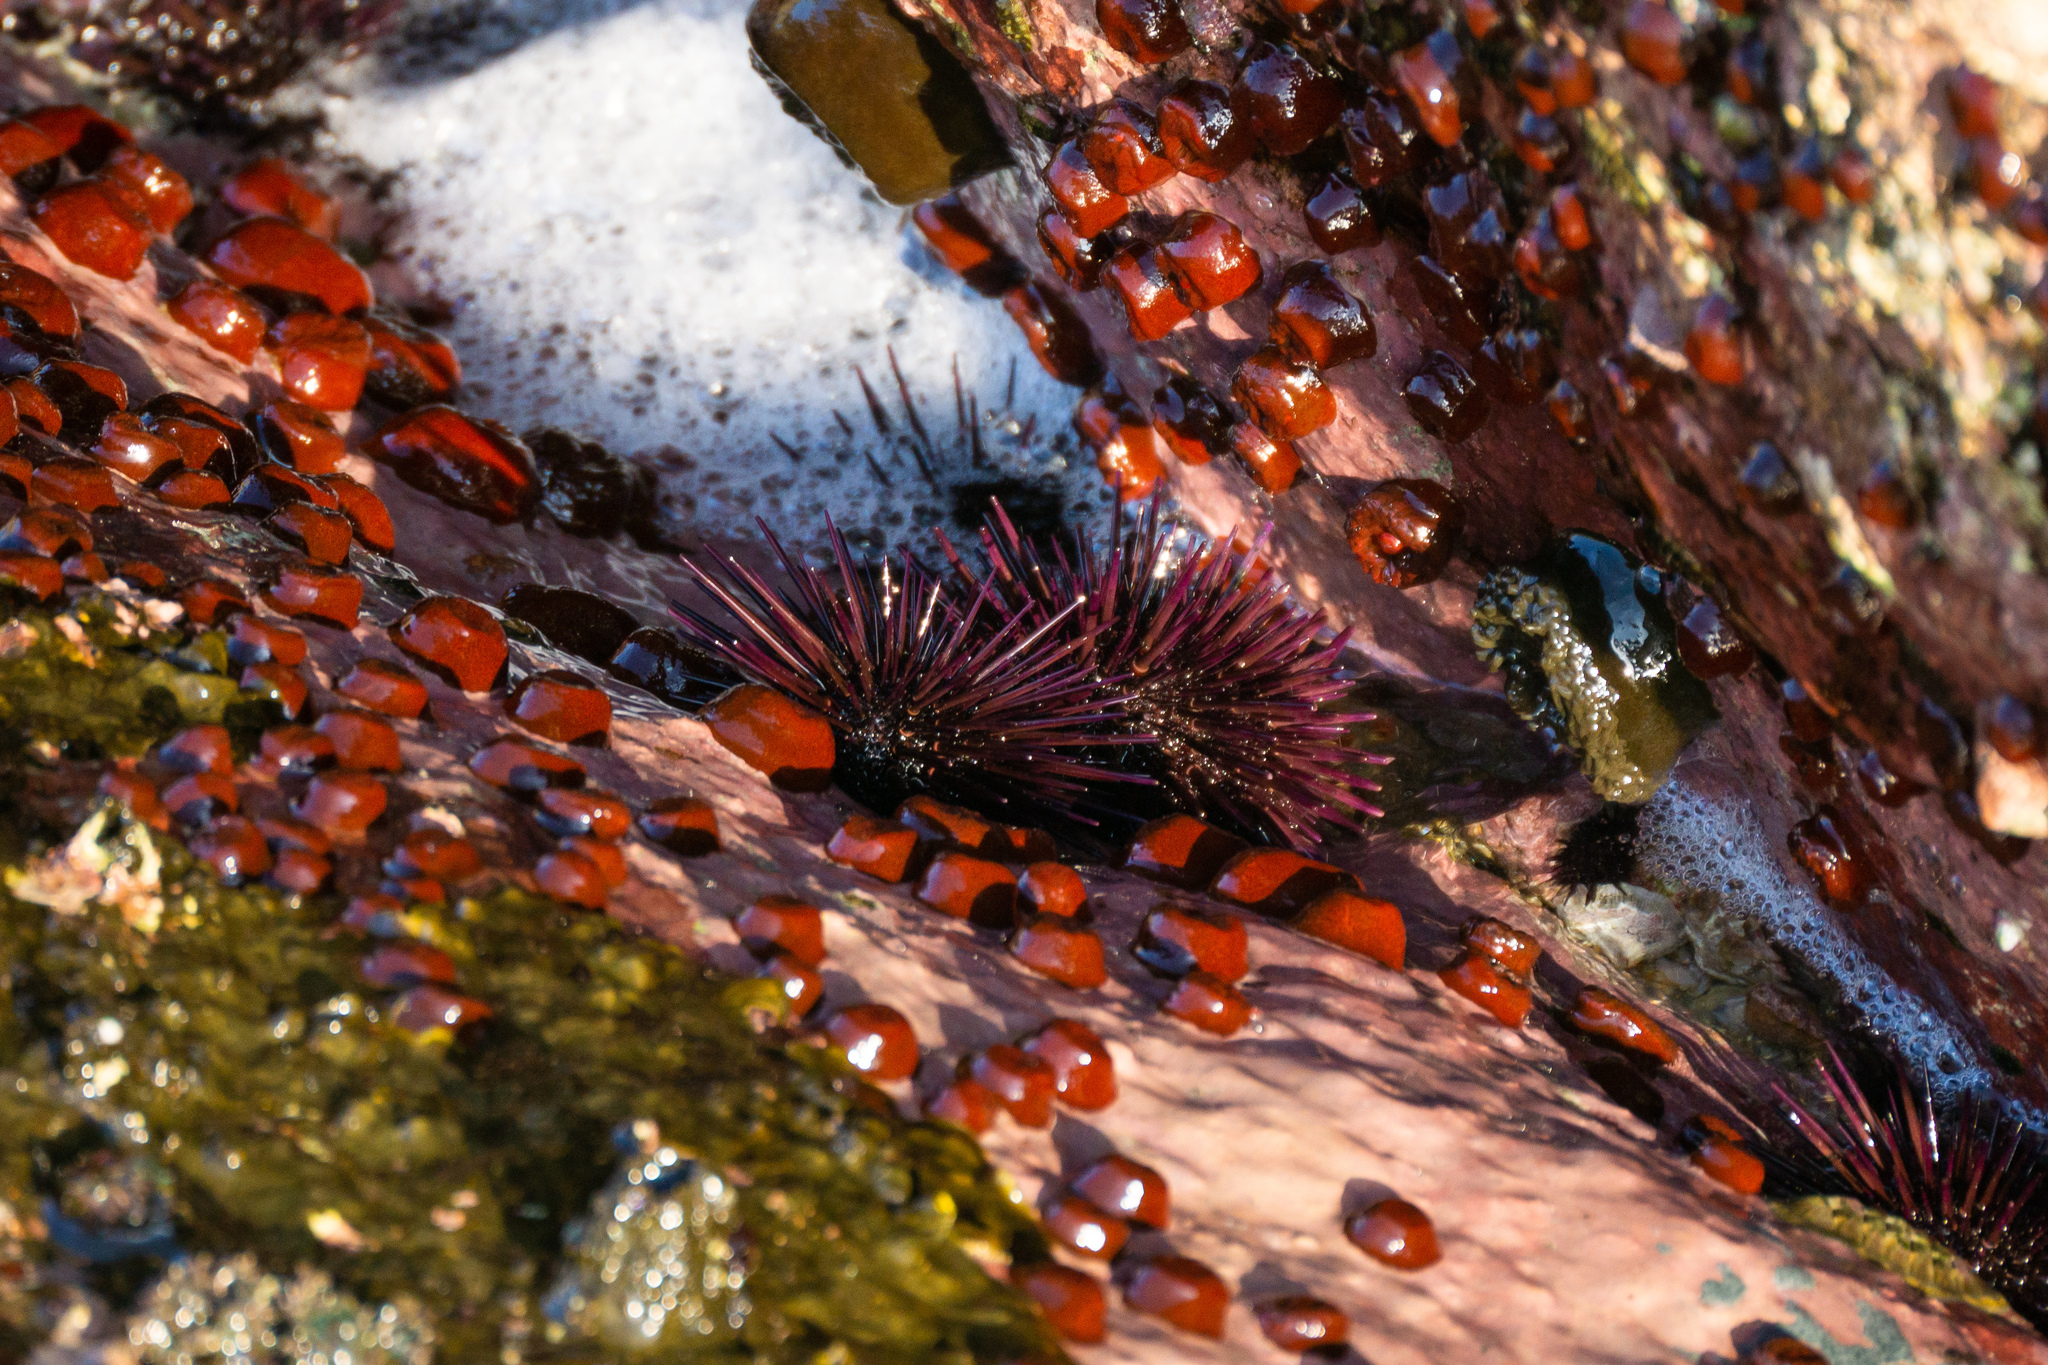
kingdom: Animalia
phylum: Echinodermata
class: Echinoidea
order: Camarodonta
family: Echinometridae
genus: Echinometra
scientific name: Echinometra vanbrunti
